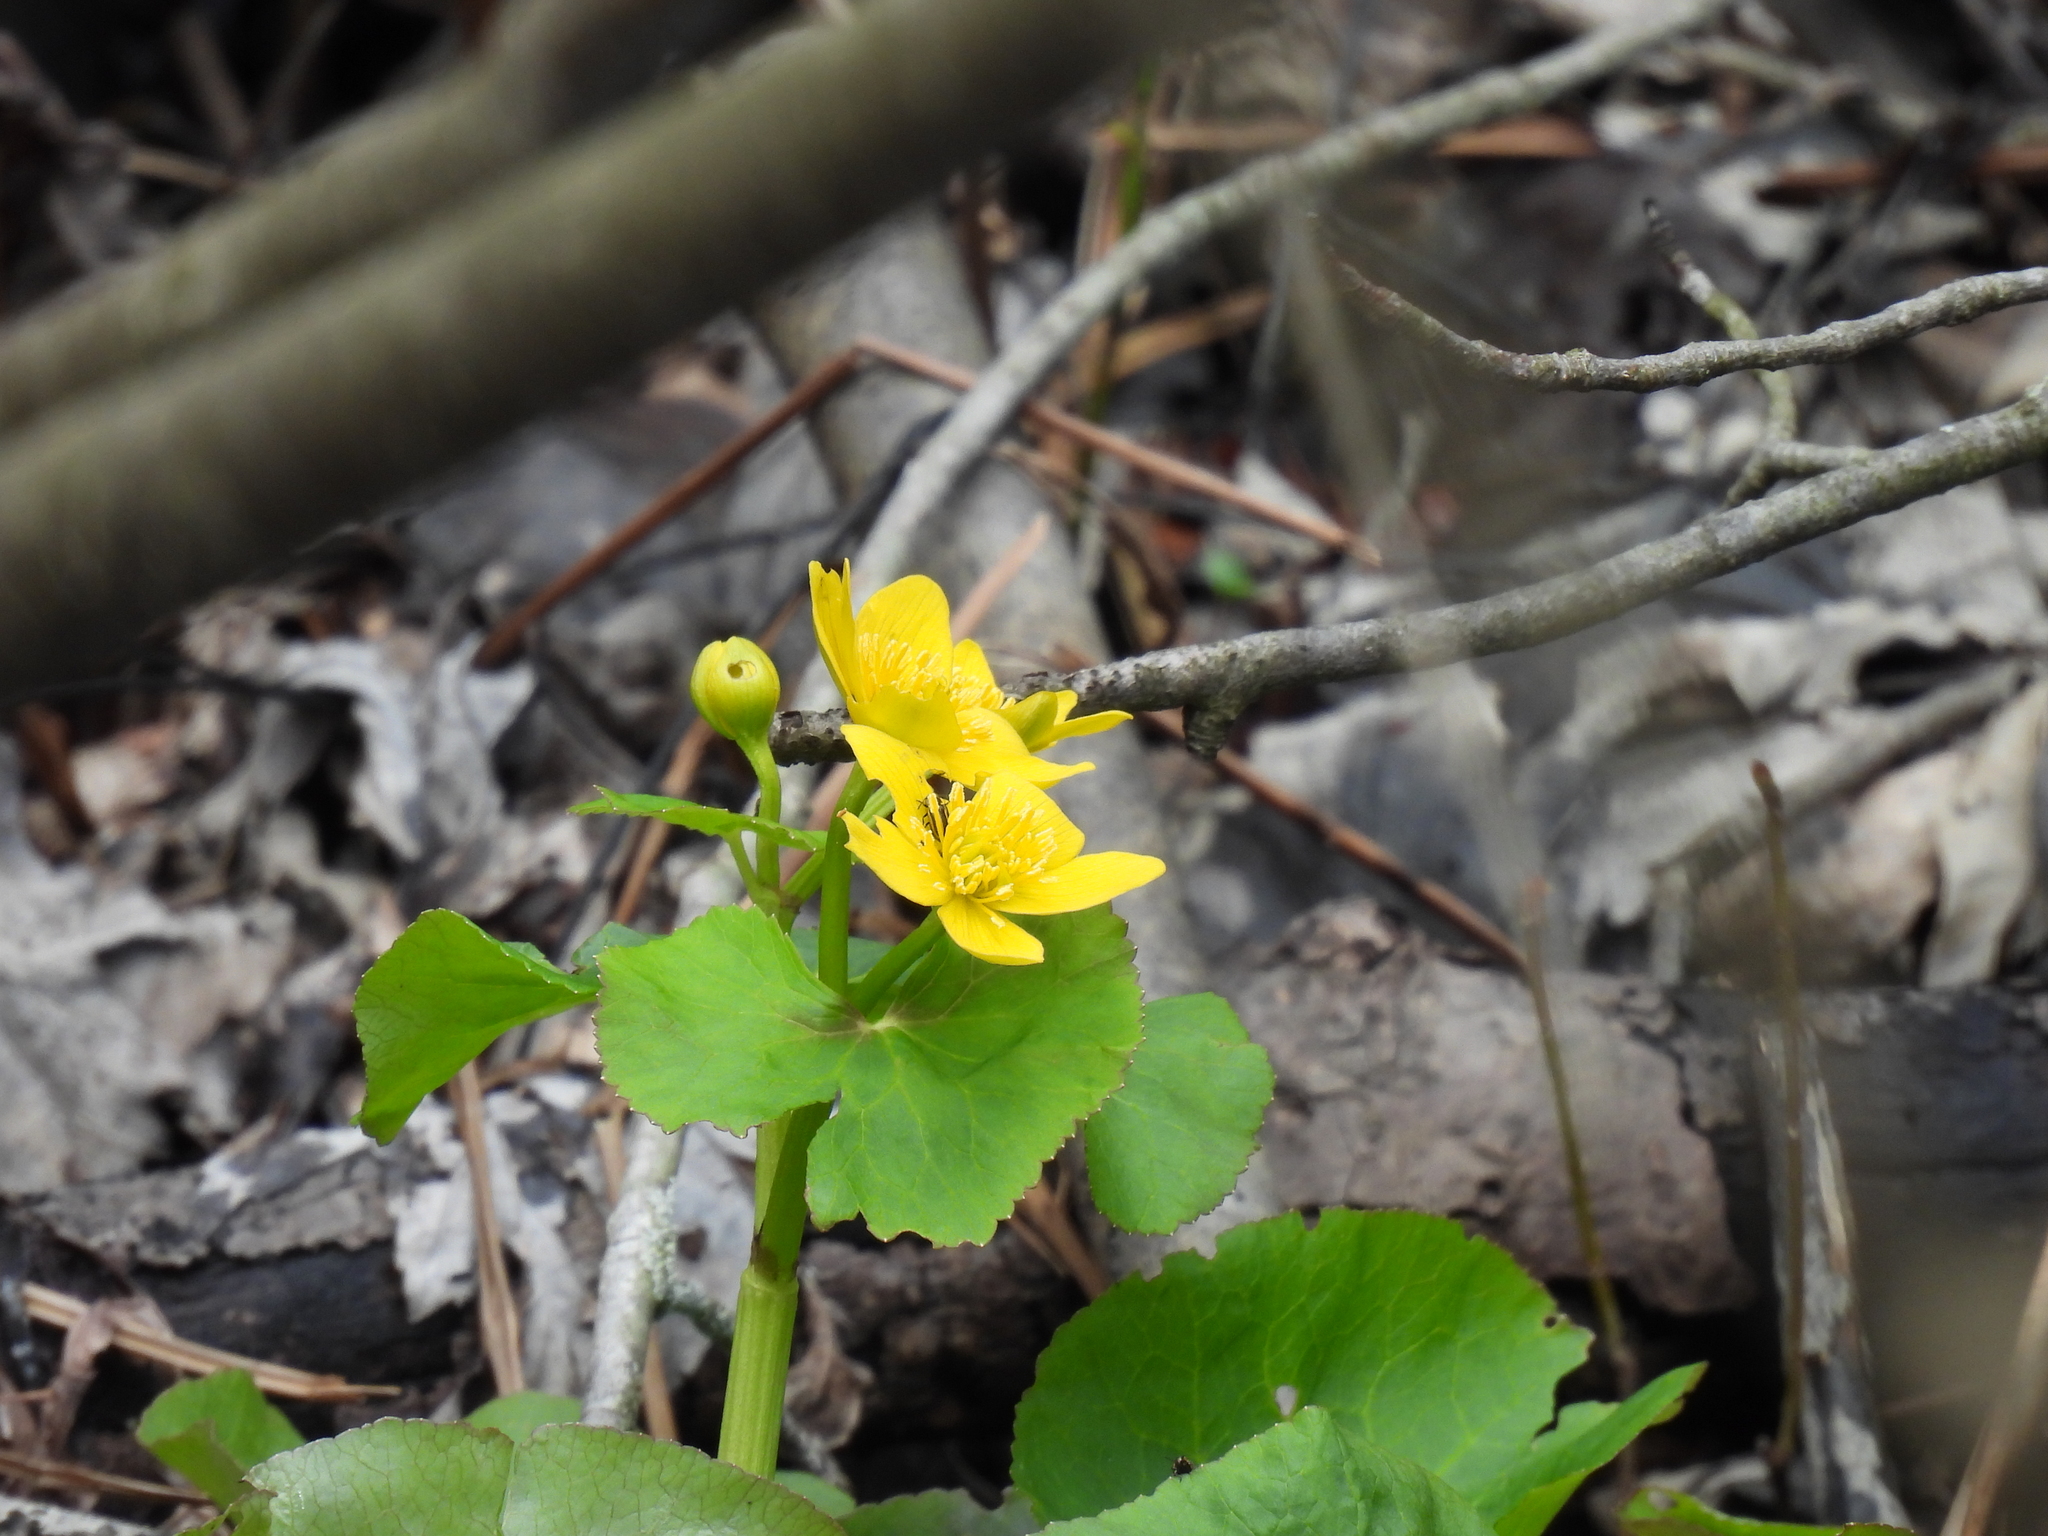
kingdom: Plantae
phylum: Tracheophyta
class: Magnoliopsida
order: Ranunculales
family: Ranunculaceae
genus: Caltha
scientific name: Caltha palustris
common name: Marsh marigold
